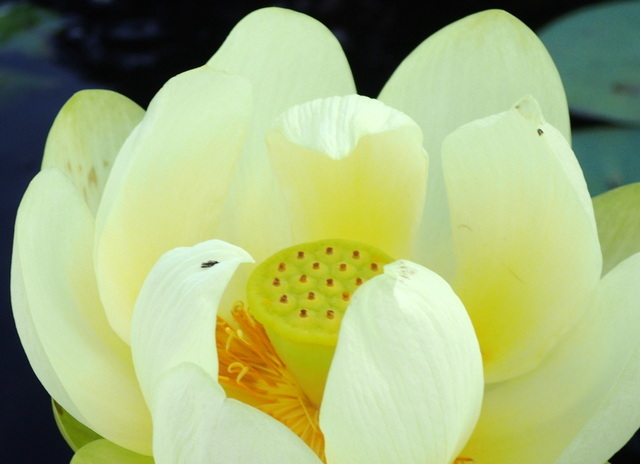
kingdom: Plantae
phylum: Tracheophyta
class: Magnoliopsida
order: Proteales
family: Nelumbonaceae
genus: Nelumbo
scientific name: Nelumbo lutea
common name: American lotus
